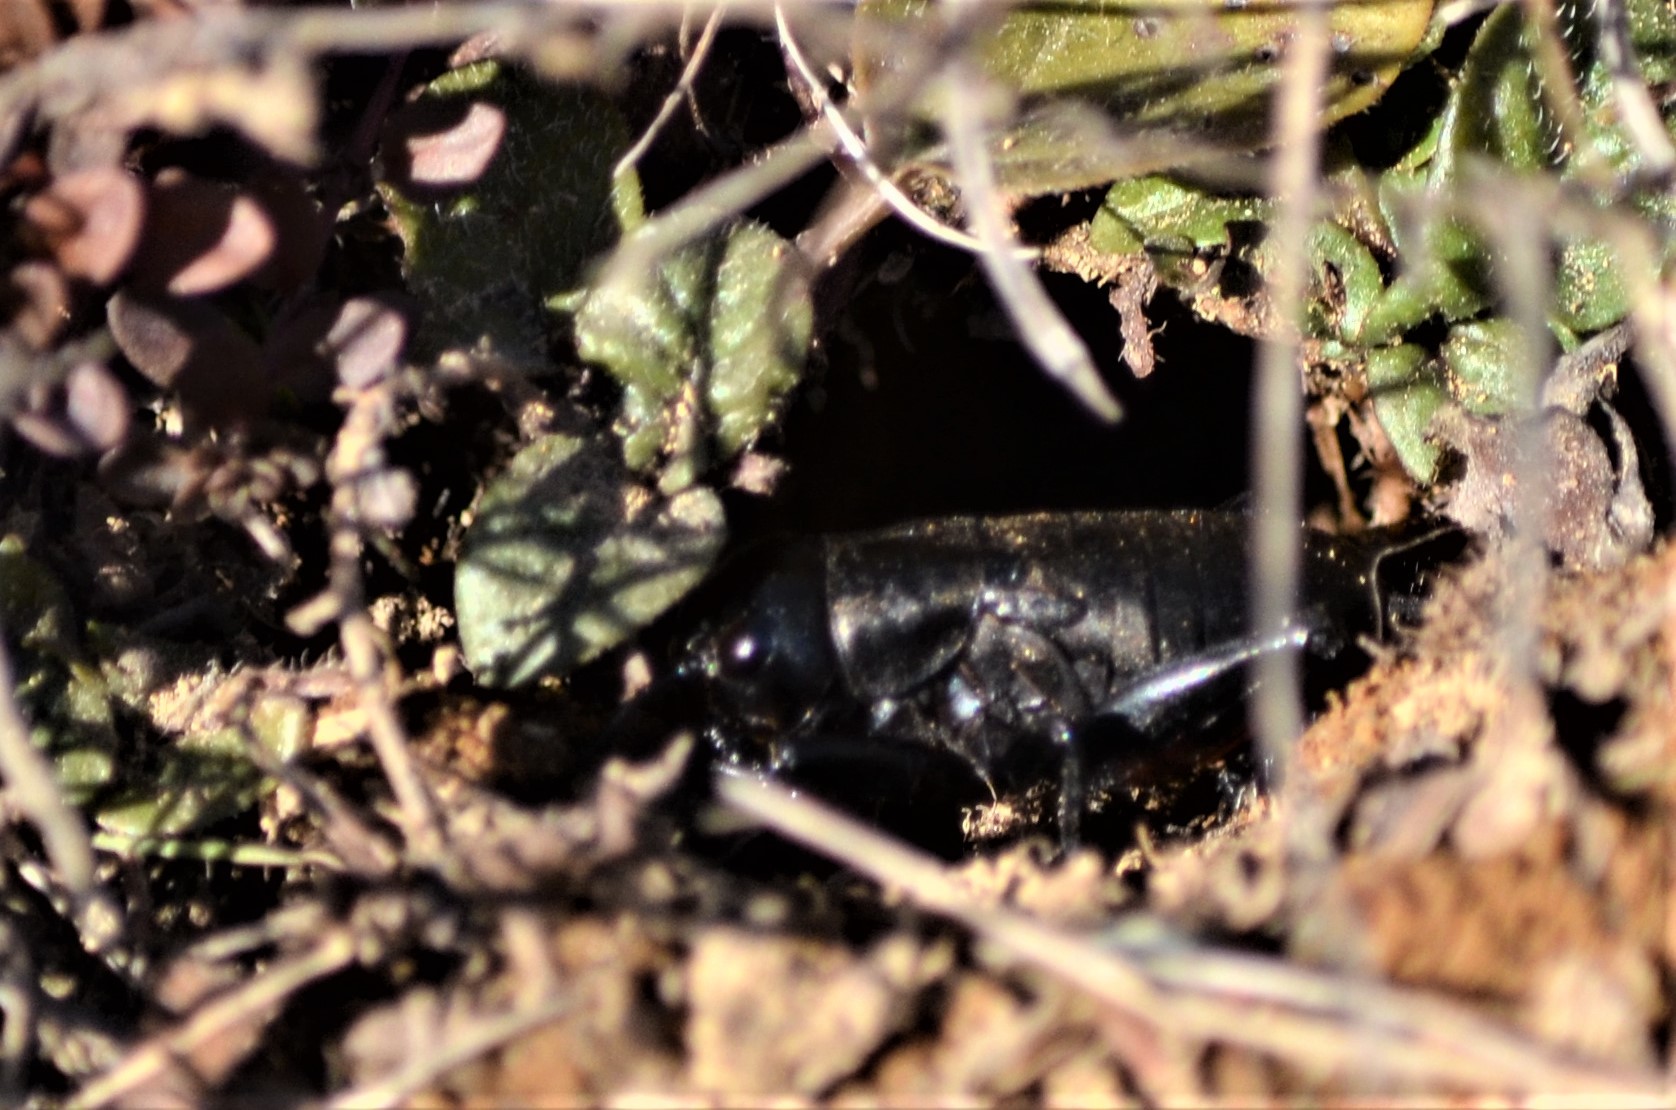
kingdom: Animalia
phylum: Arthropoda
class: Insecta
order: Orthoptera
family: Gryllidae
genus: Gryllus
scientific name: Gryllus campestris
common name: Field cricket
